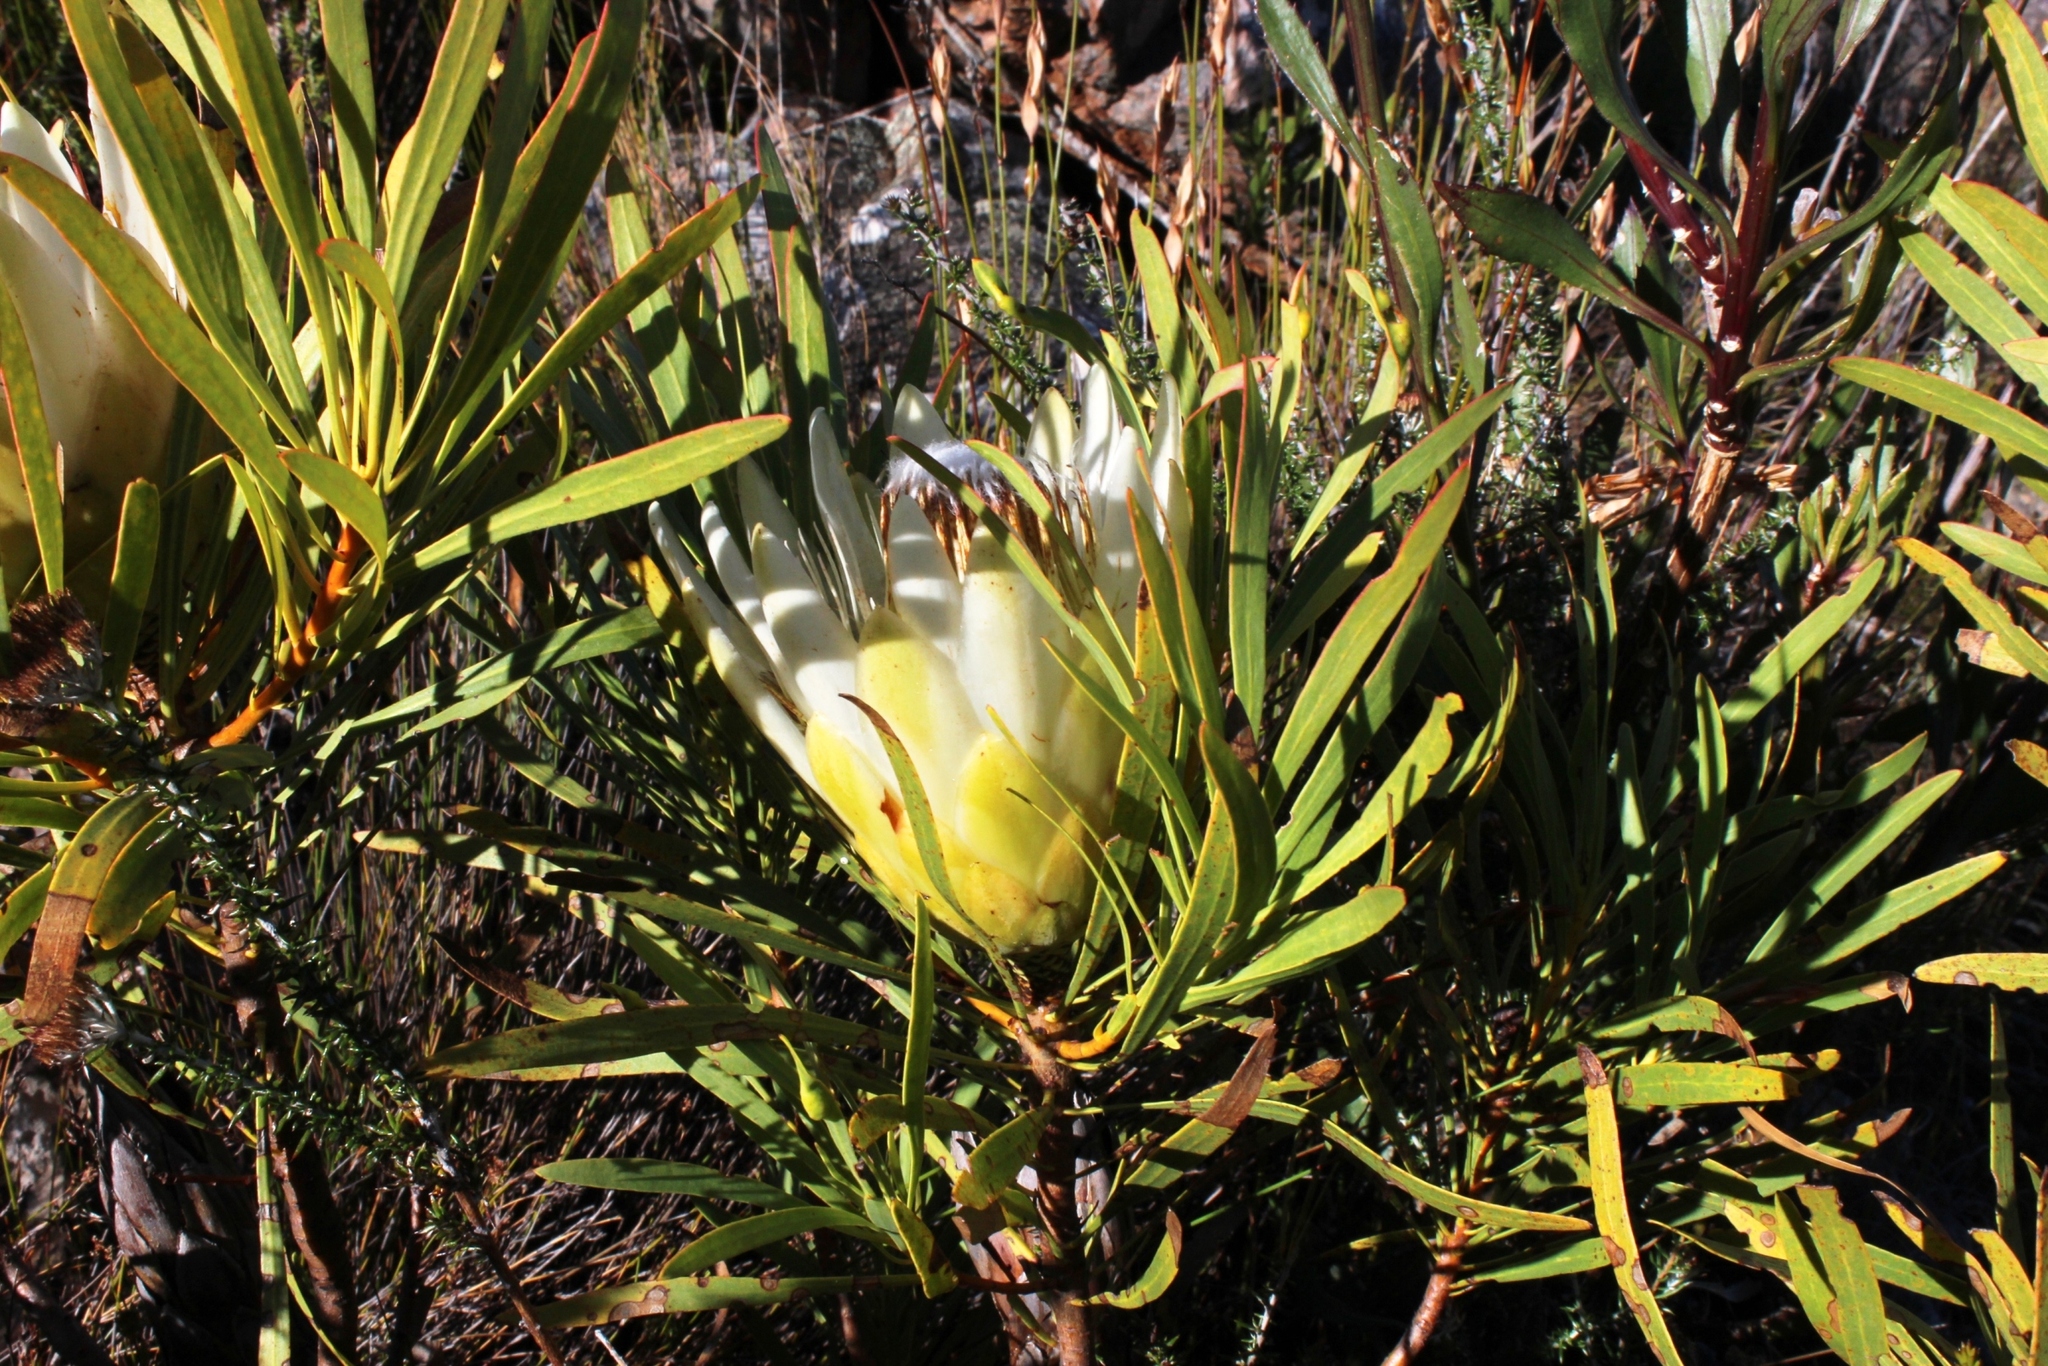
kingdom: Plantae
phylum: Tracheophyta
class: Magnoliopsida
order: Proteales
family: Proteaceae
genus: Protea
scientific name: Protea repens
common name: Sugarbush
